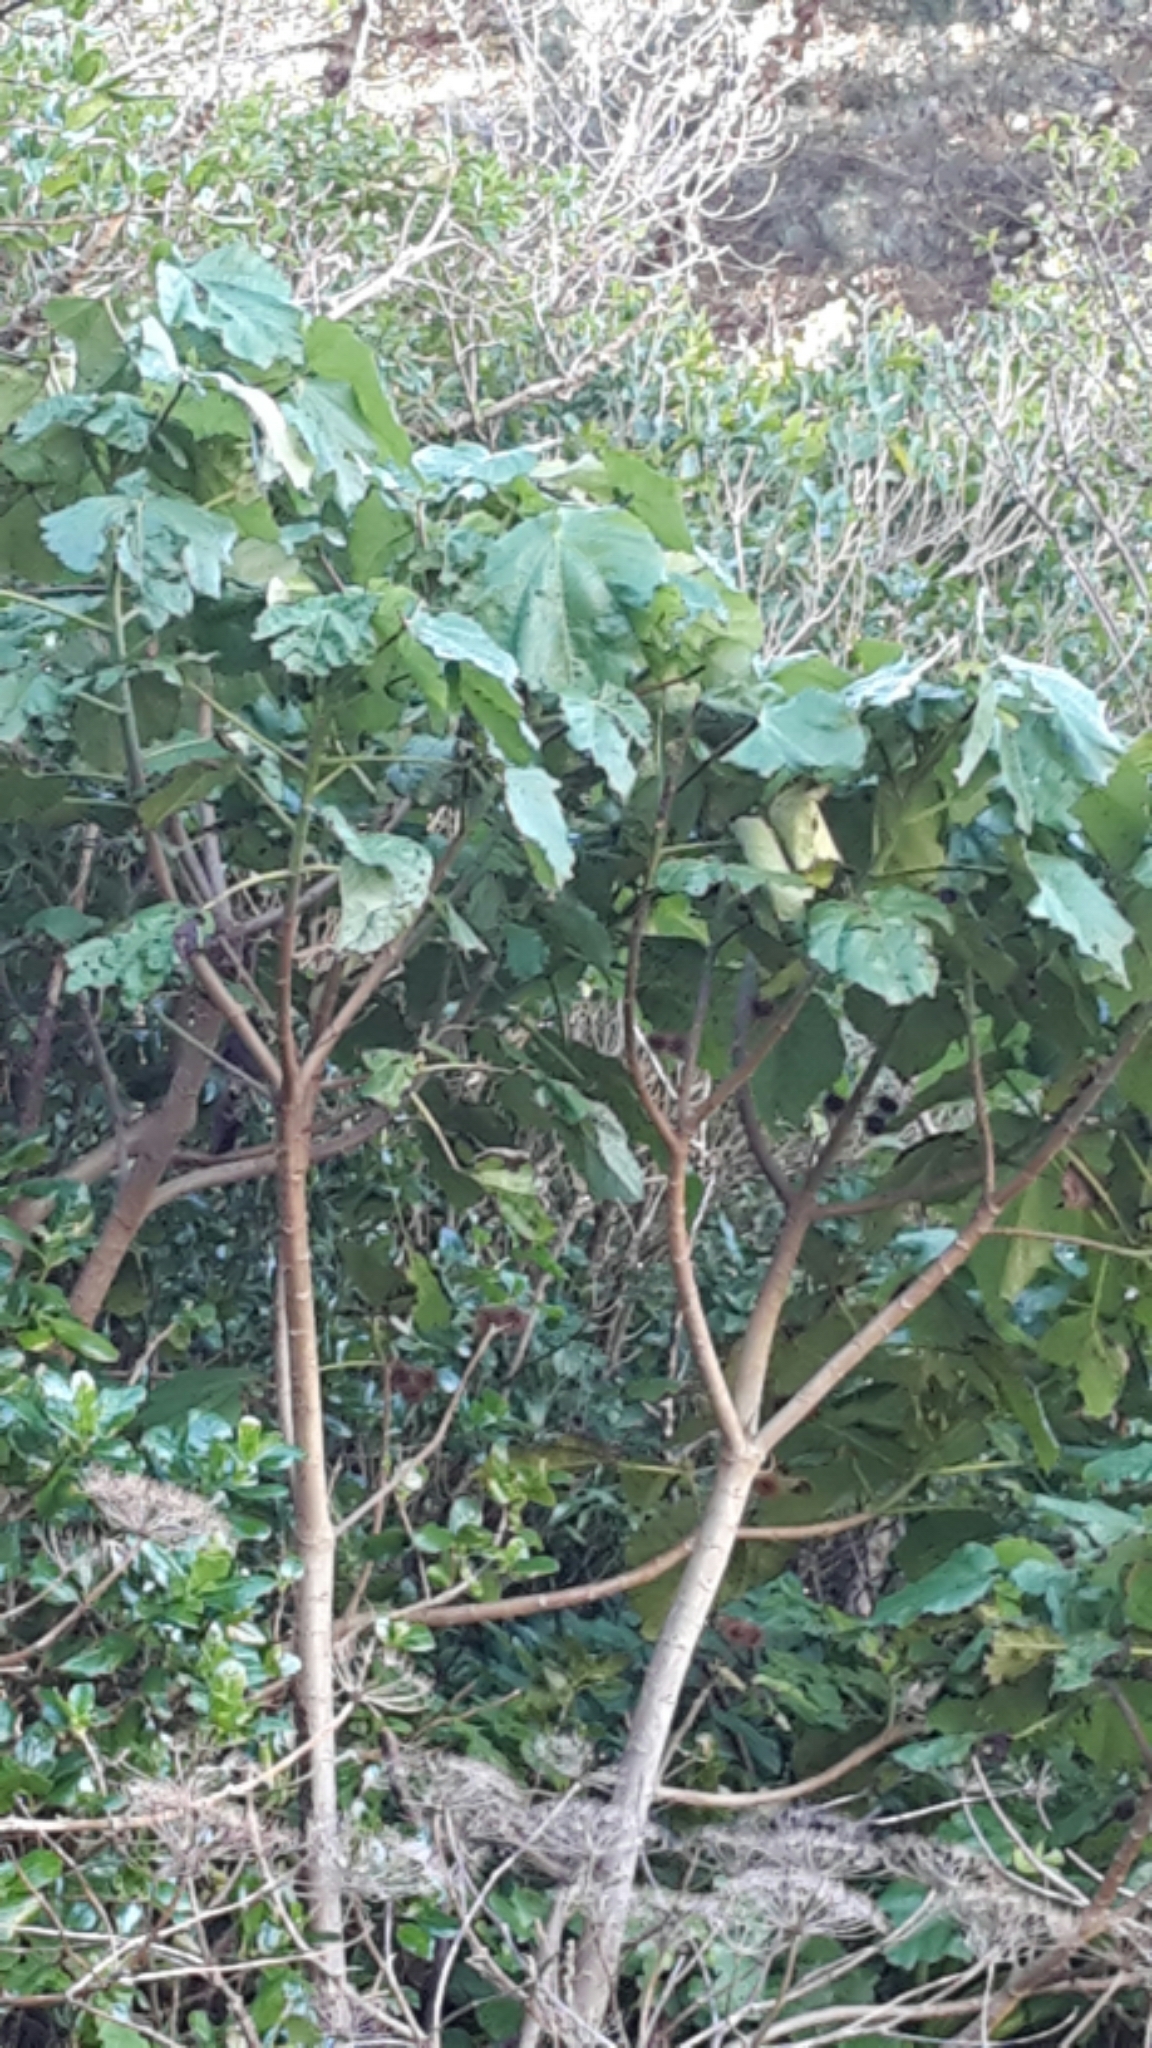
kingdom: Plantae
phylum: Tracheophyta
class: Magnoliopsida
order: Malvales
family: Malvaceae
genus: Entelea
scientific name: Entelea arborescens
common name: New zealand-mulberry
